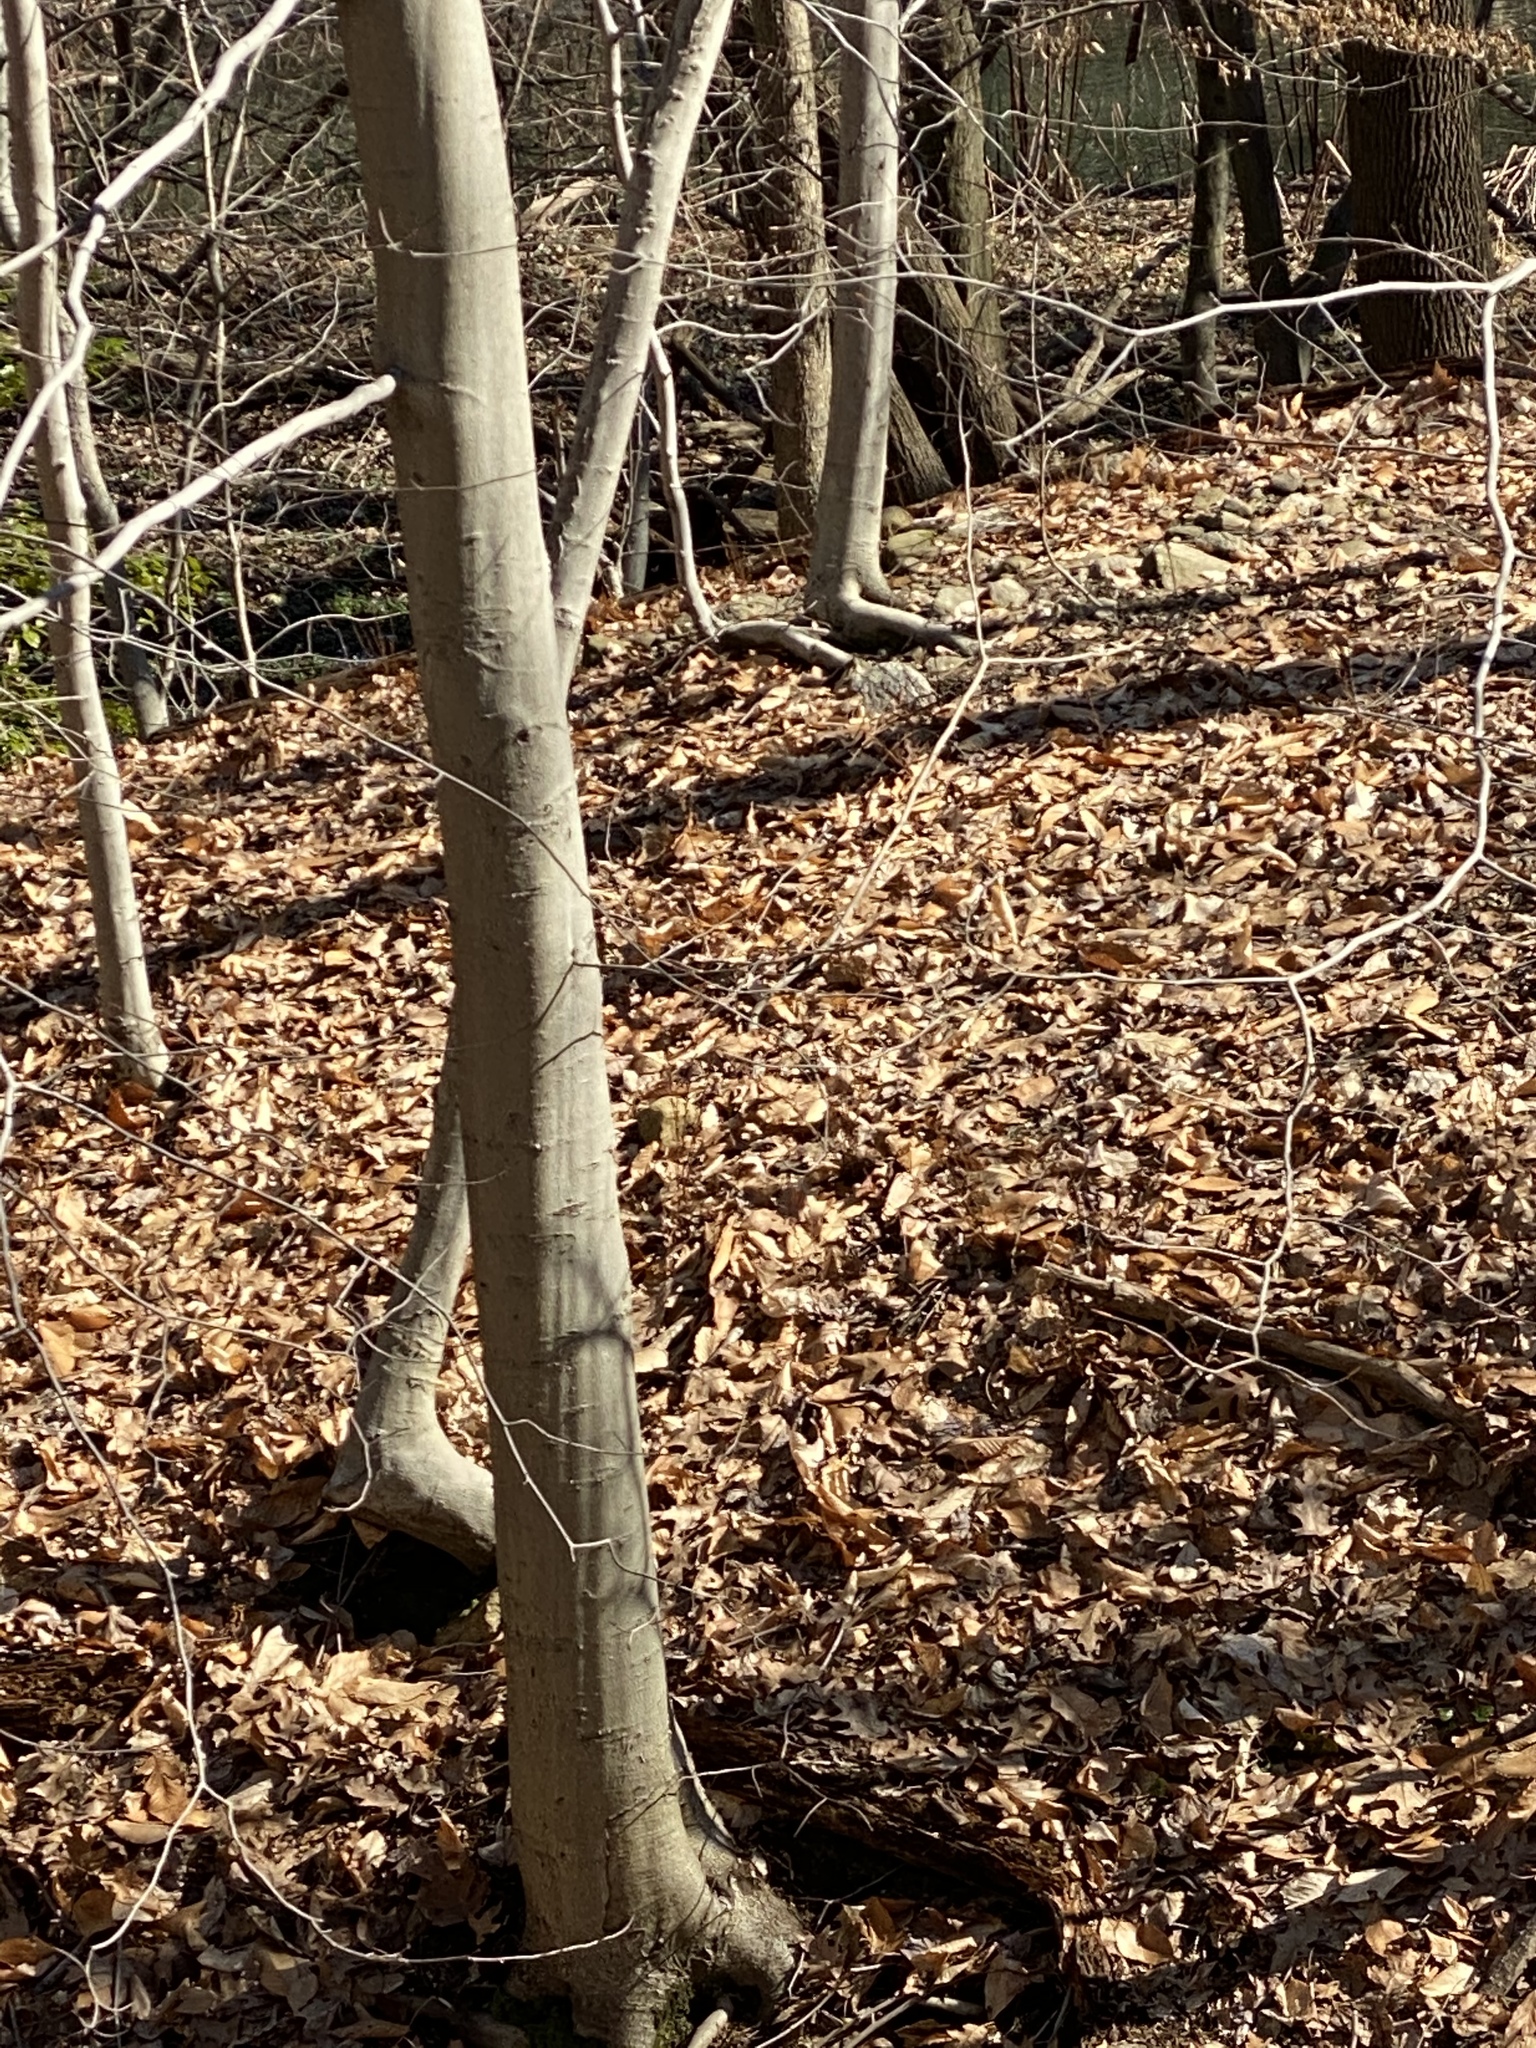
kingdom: Plantae
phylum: Tracheophyta
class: Magnoliopsida
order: Fagales
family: Fagaceae
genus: Fagus
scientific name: Fagus grandifolia
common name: American beech
